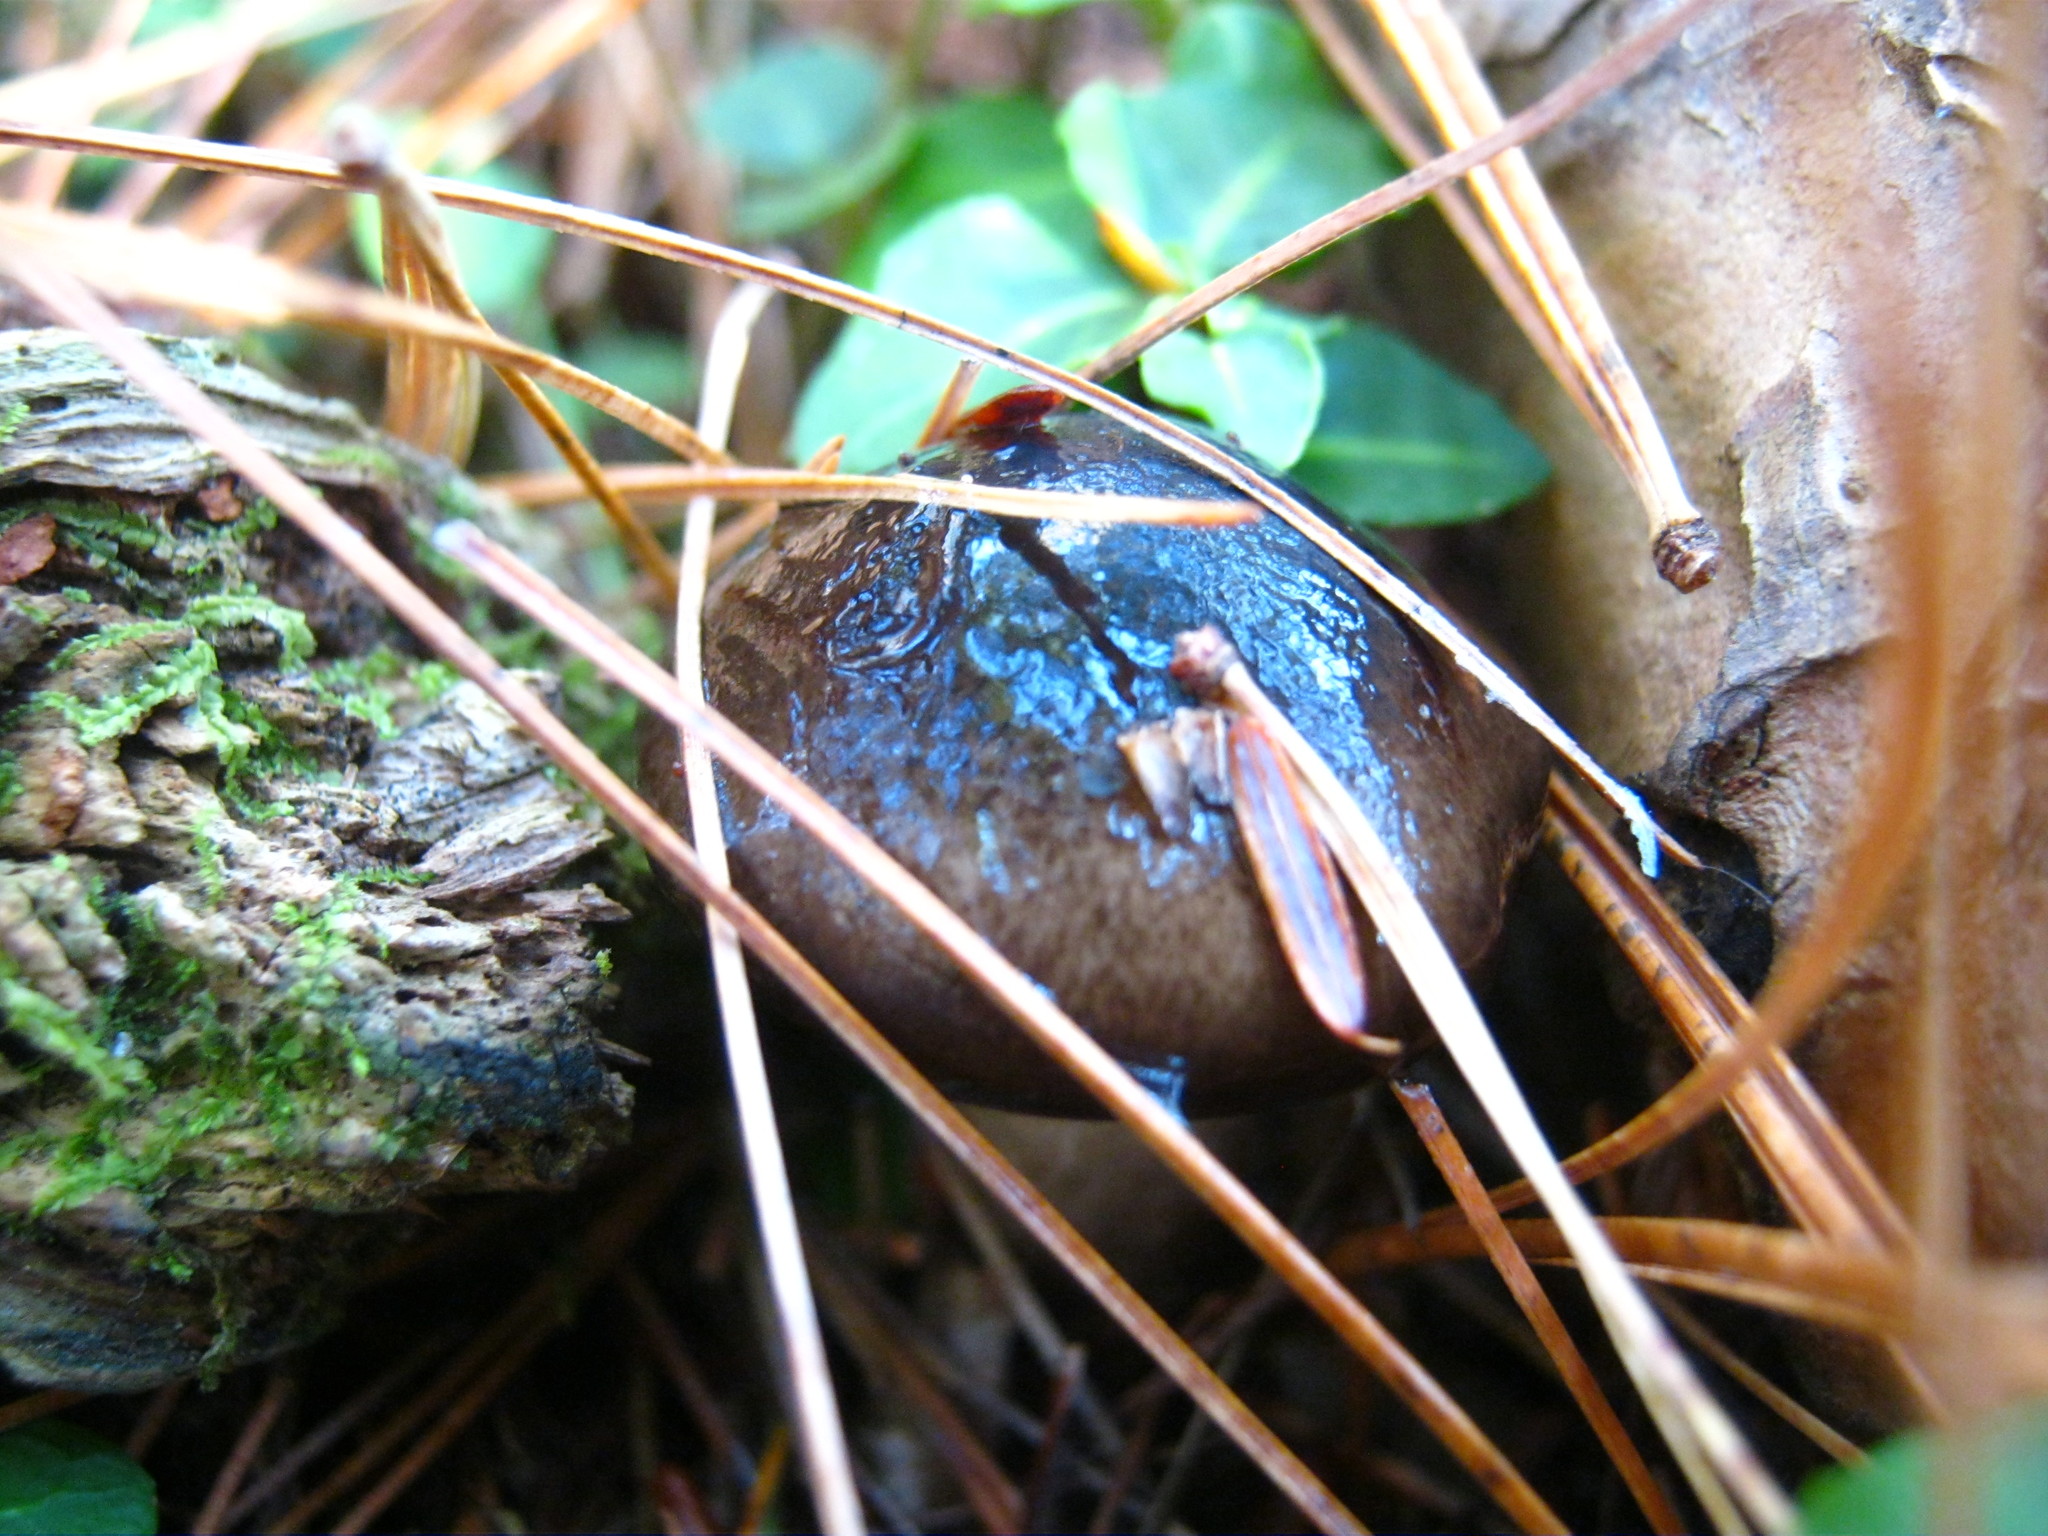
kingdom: Fungi
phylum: Basidiomycota
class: Agaricomycetes
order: Agaricales
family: Hygrophoraceae
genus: Hygrophorus
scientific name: Hygrophorus fuligineus
